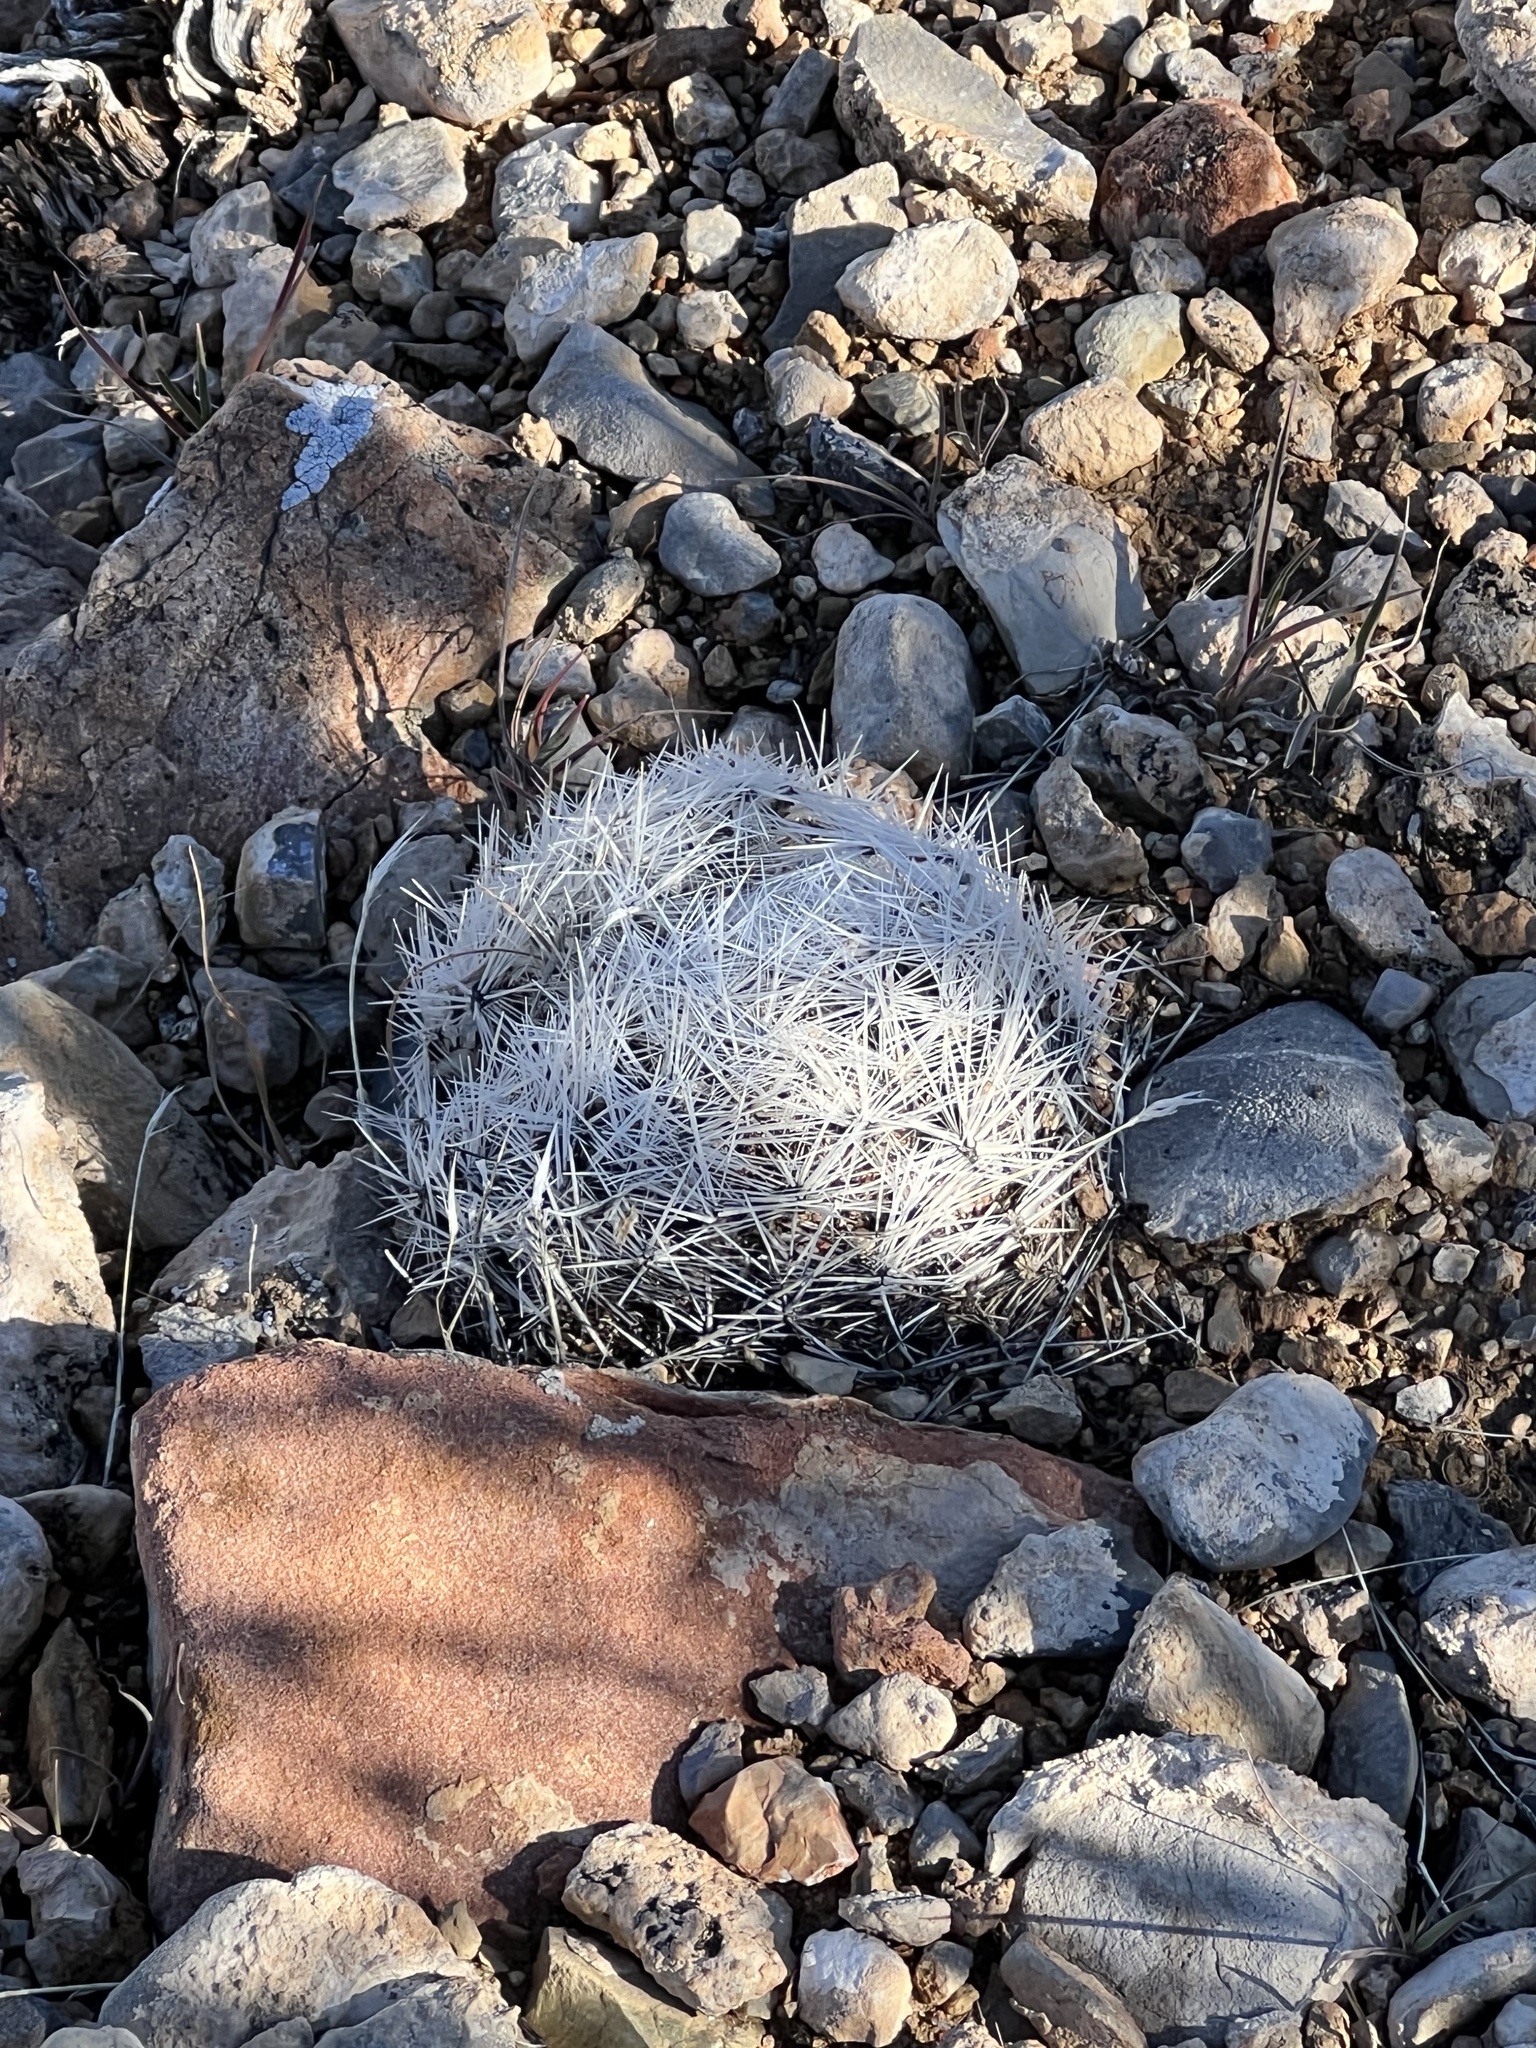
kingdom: Plantae
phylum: Tracheophyta
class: Magnoliopsida
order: Caryophyllales
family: Cactaceae
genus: Pelecyphora
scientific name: Pelecyphora dasyacantha
